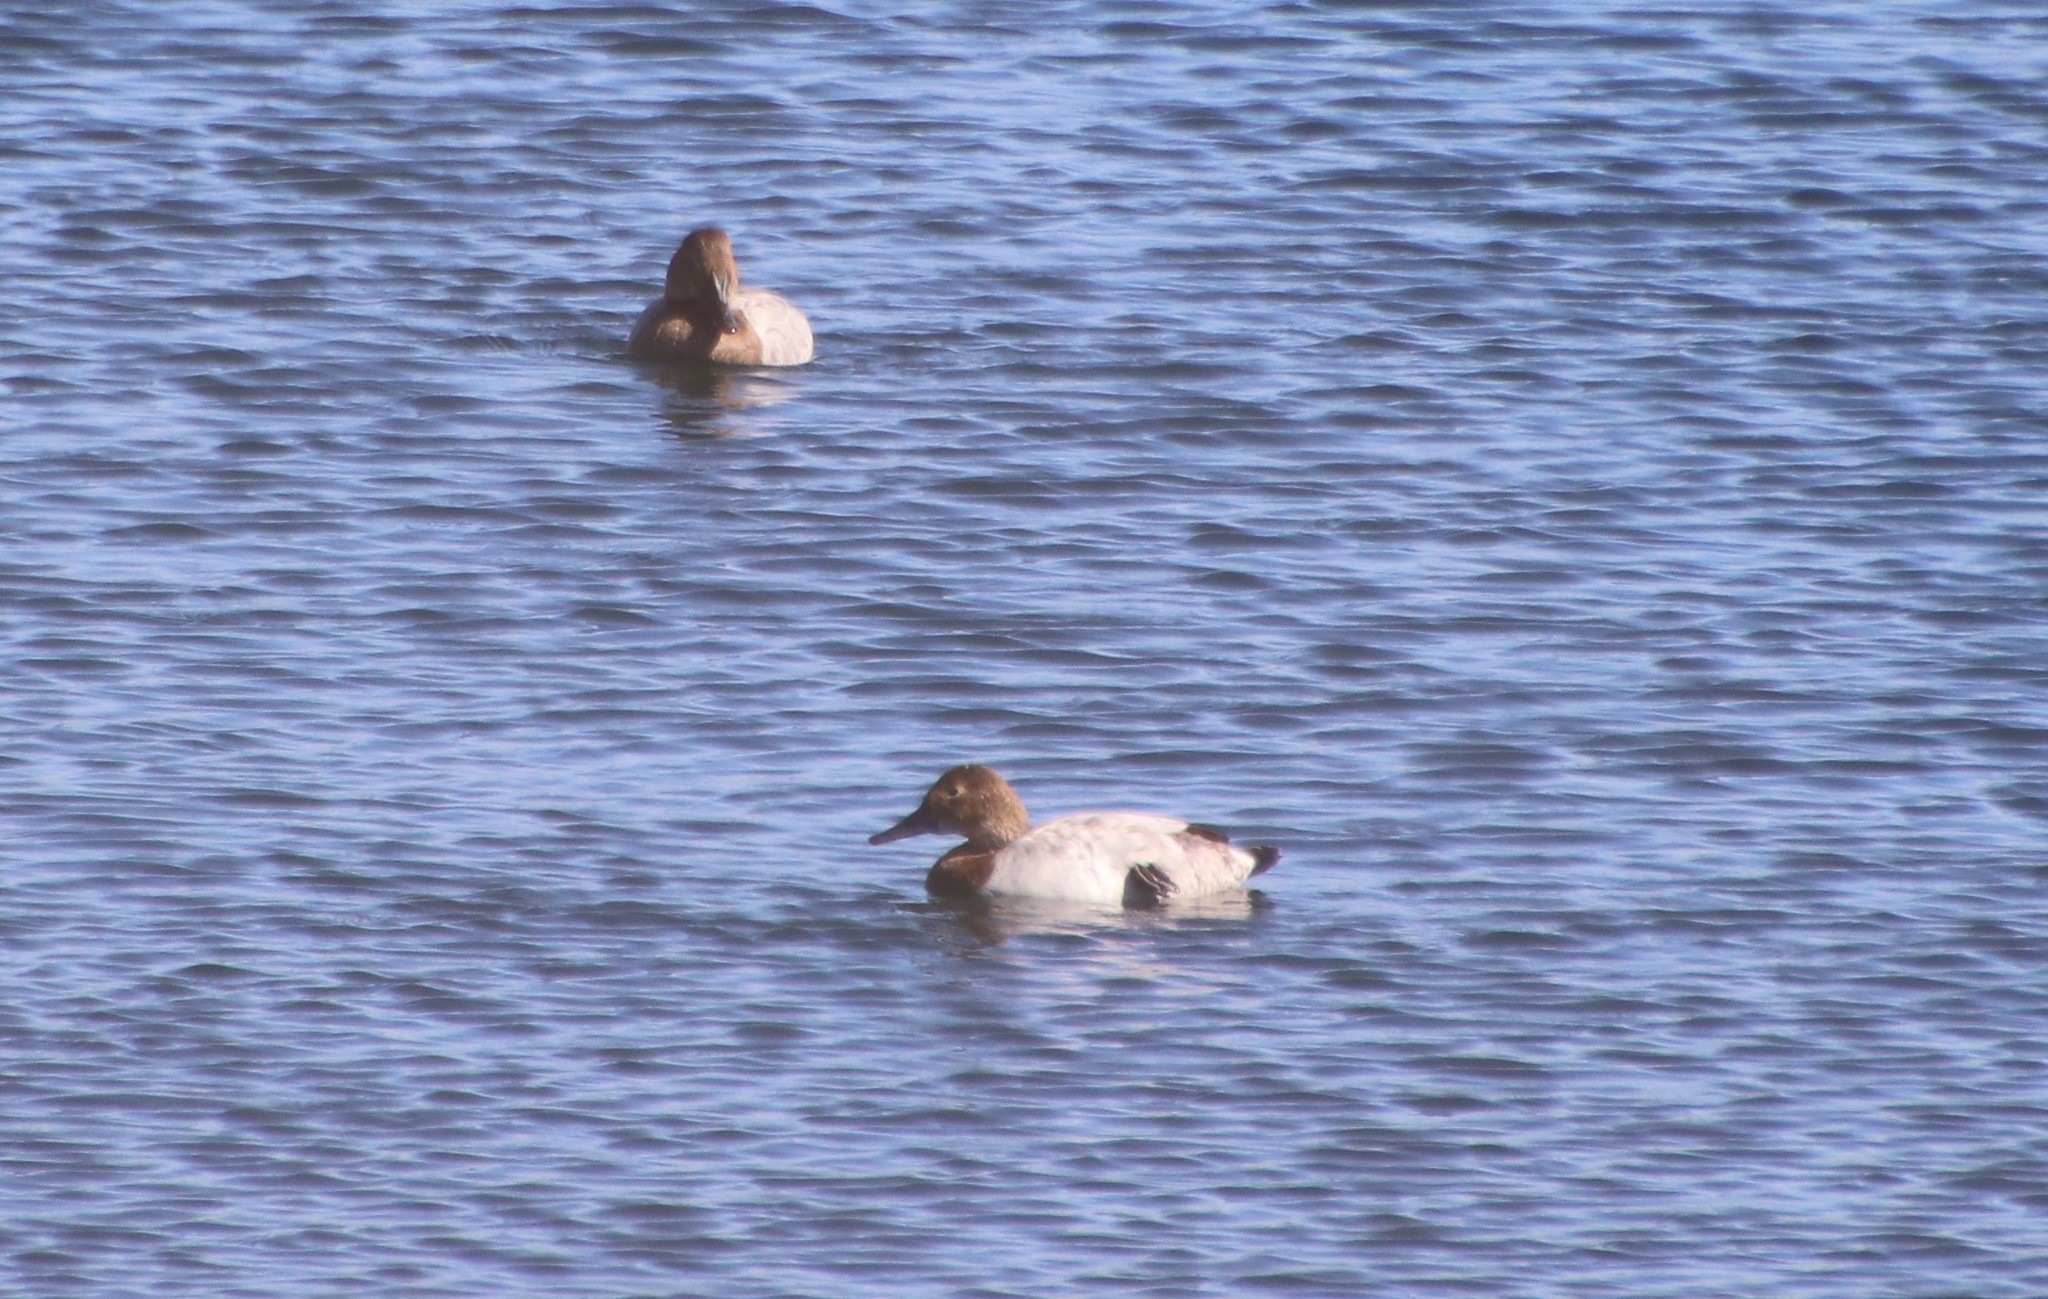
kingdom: Animalia
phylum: Chordata
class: Aves
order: Anseriformes
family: Anatidae
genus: Aythya
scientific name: Aythya valisineria
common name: Canvasback
